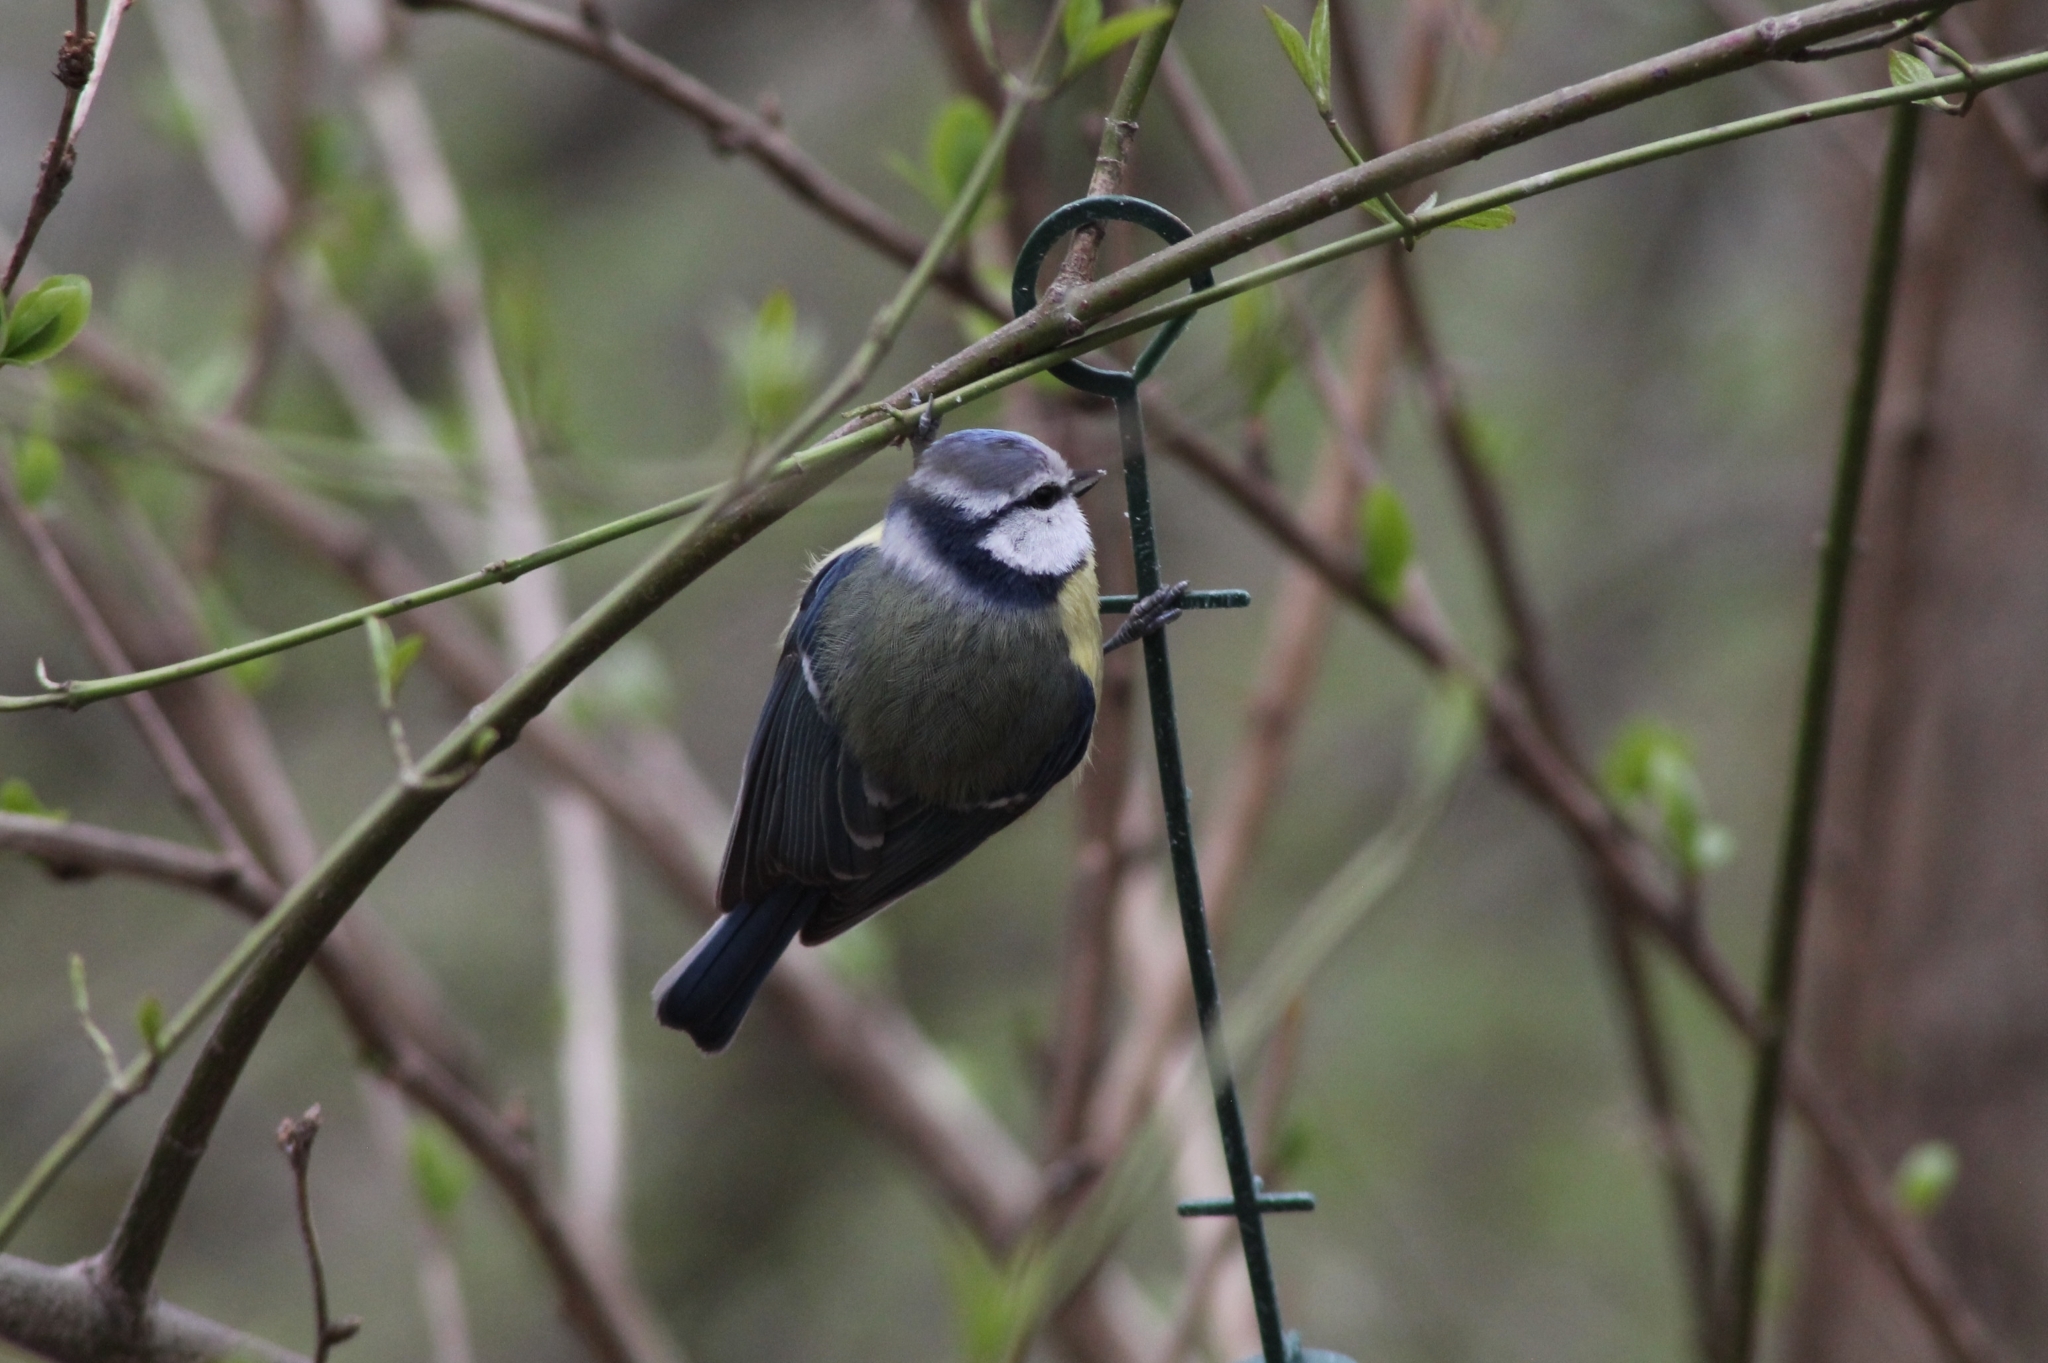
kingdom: Animalia
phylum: Chordata
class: Aves
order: Passeriformes
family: Paridae
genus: Cyanistes
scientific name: Cyanistes caeruleus
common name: Eurasian blue tit
